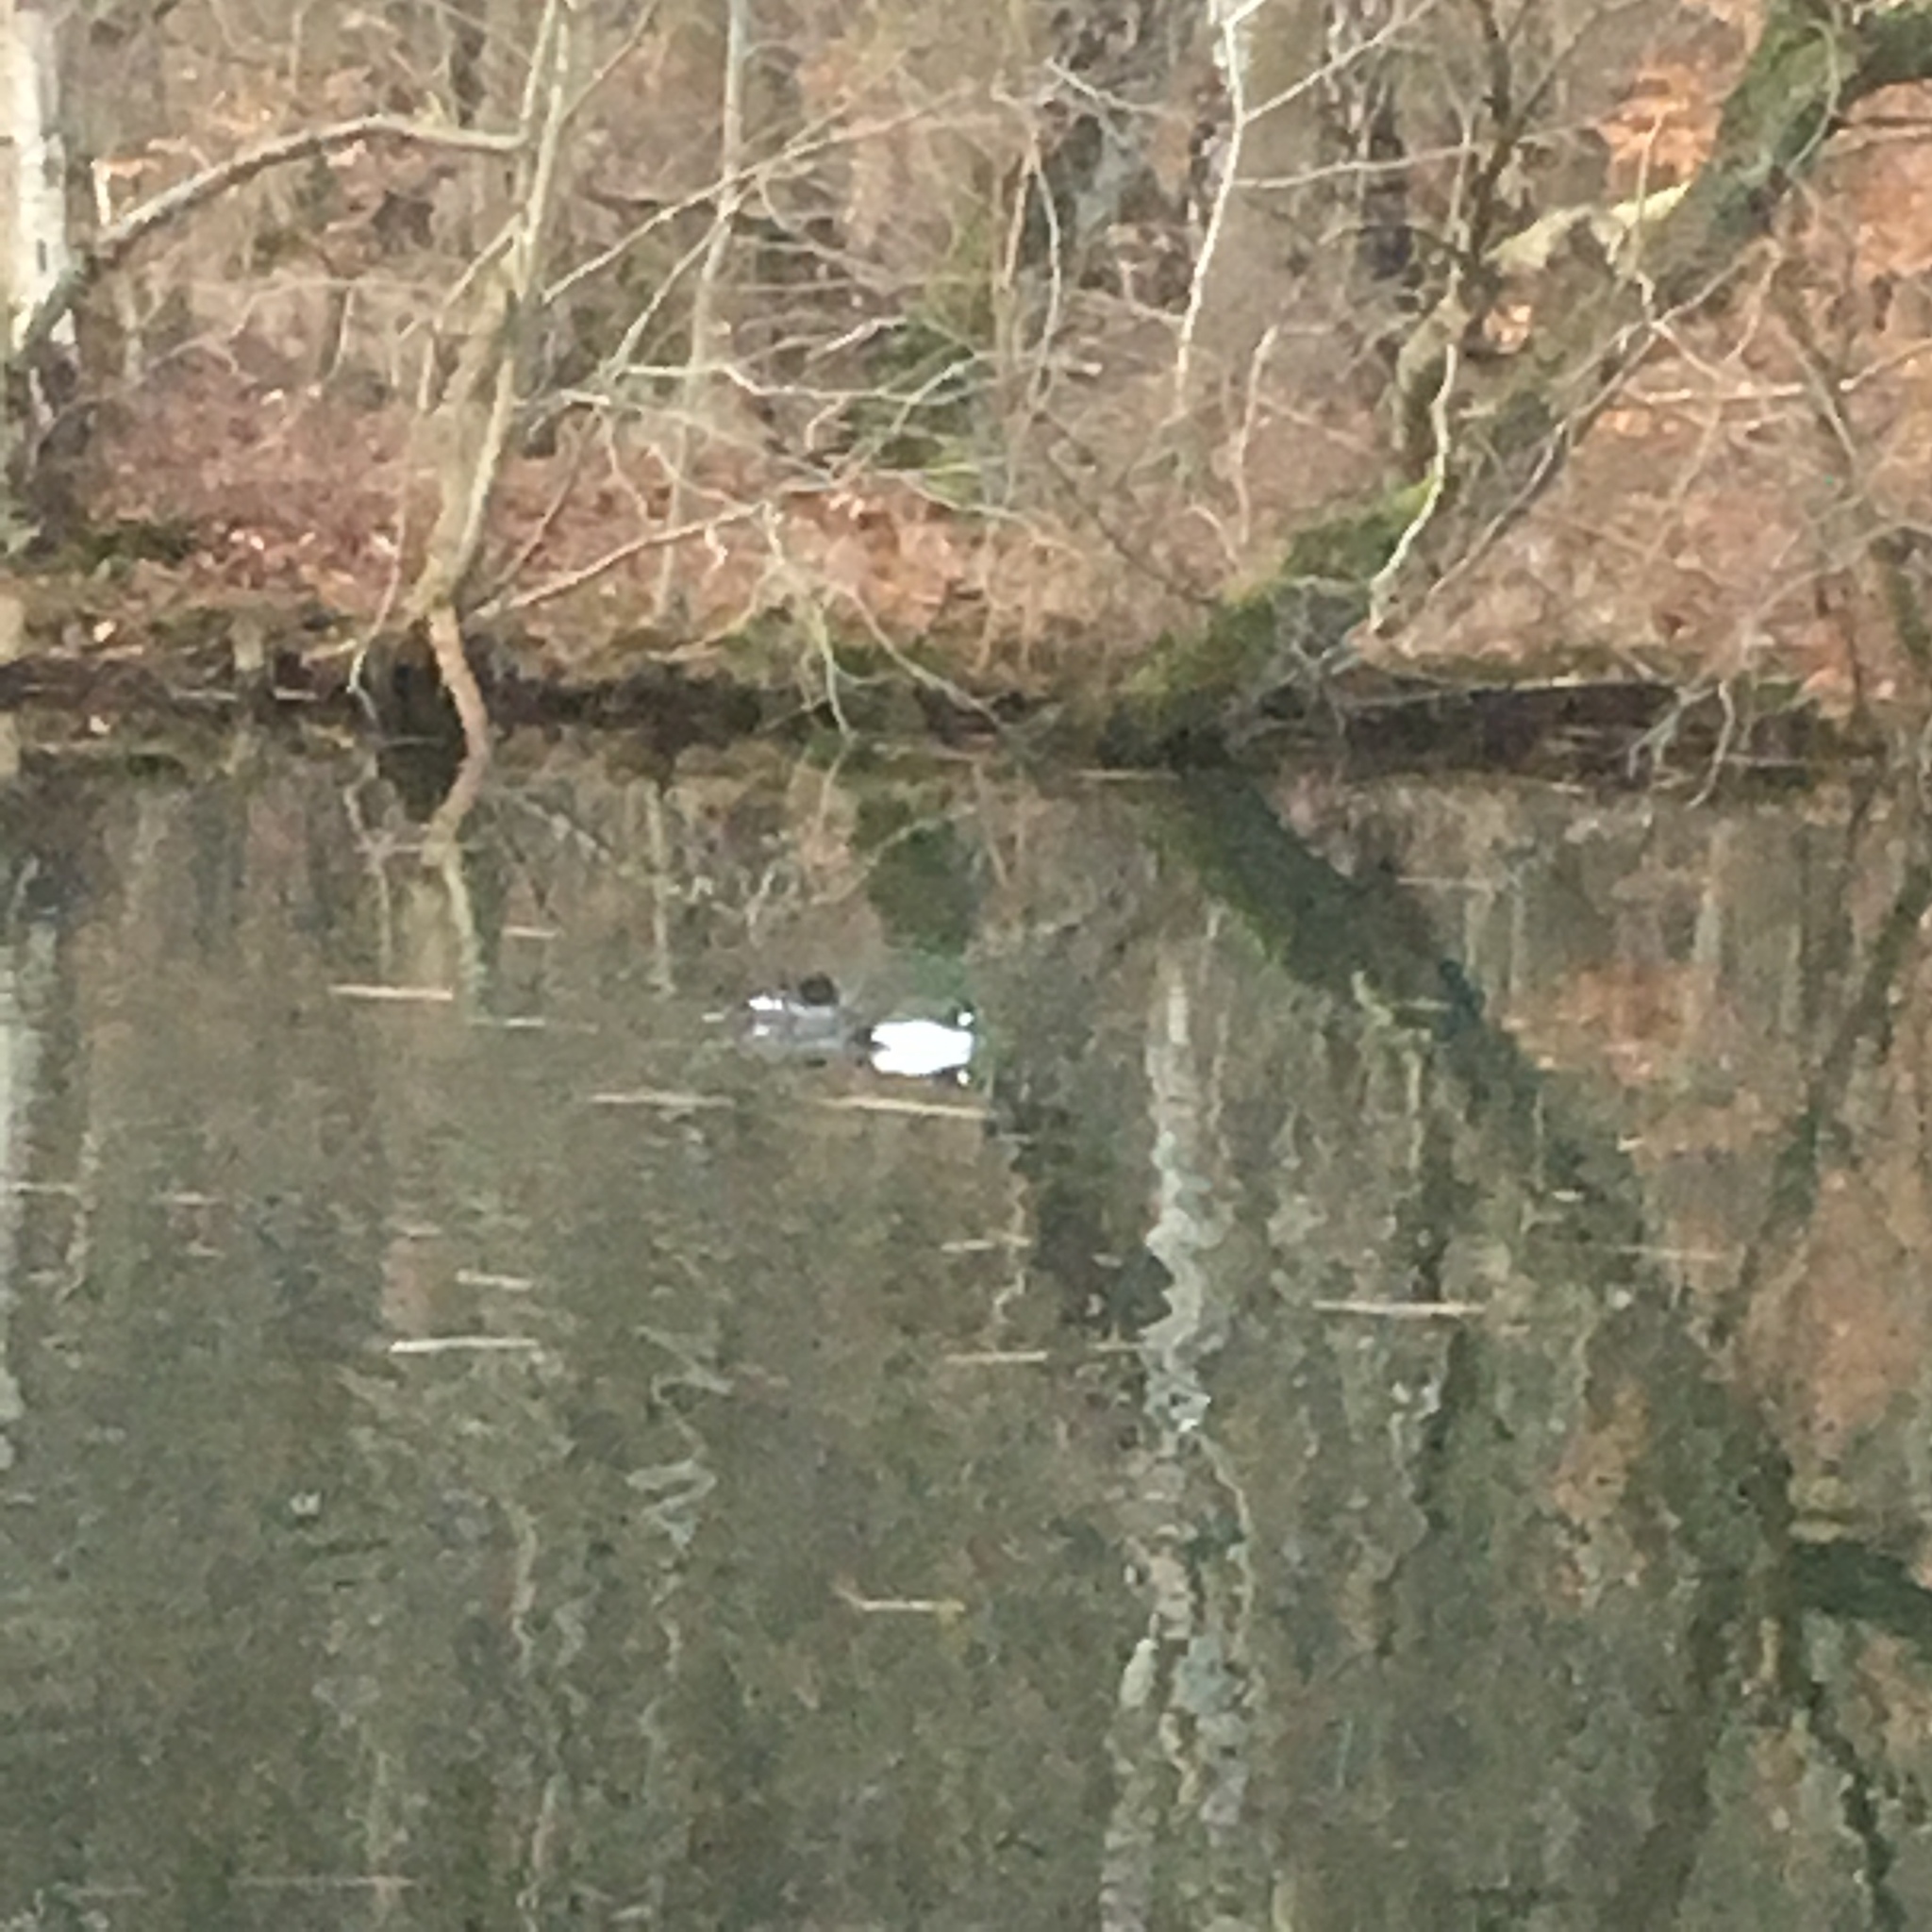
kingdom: Animalia
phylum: Chordata
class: Aves
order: Anseriformes
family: Anatidae
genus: Bucephala
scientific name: Bucephala clangula
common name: Common goldeneye
